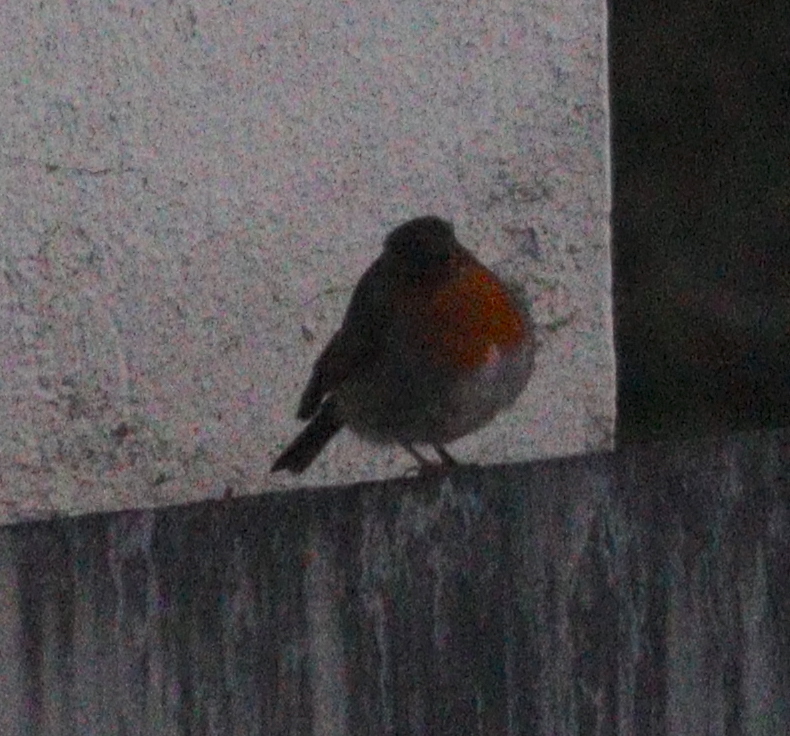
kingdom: Animalia
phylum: Chordata
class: Aves
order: Passeriformes
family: Muscicapidae
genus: Erithacus
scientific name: Erithacus rubecula
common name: European robin
